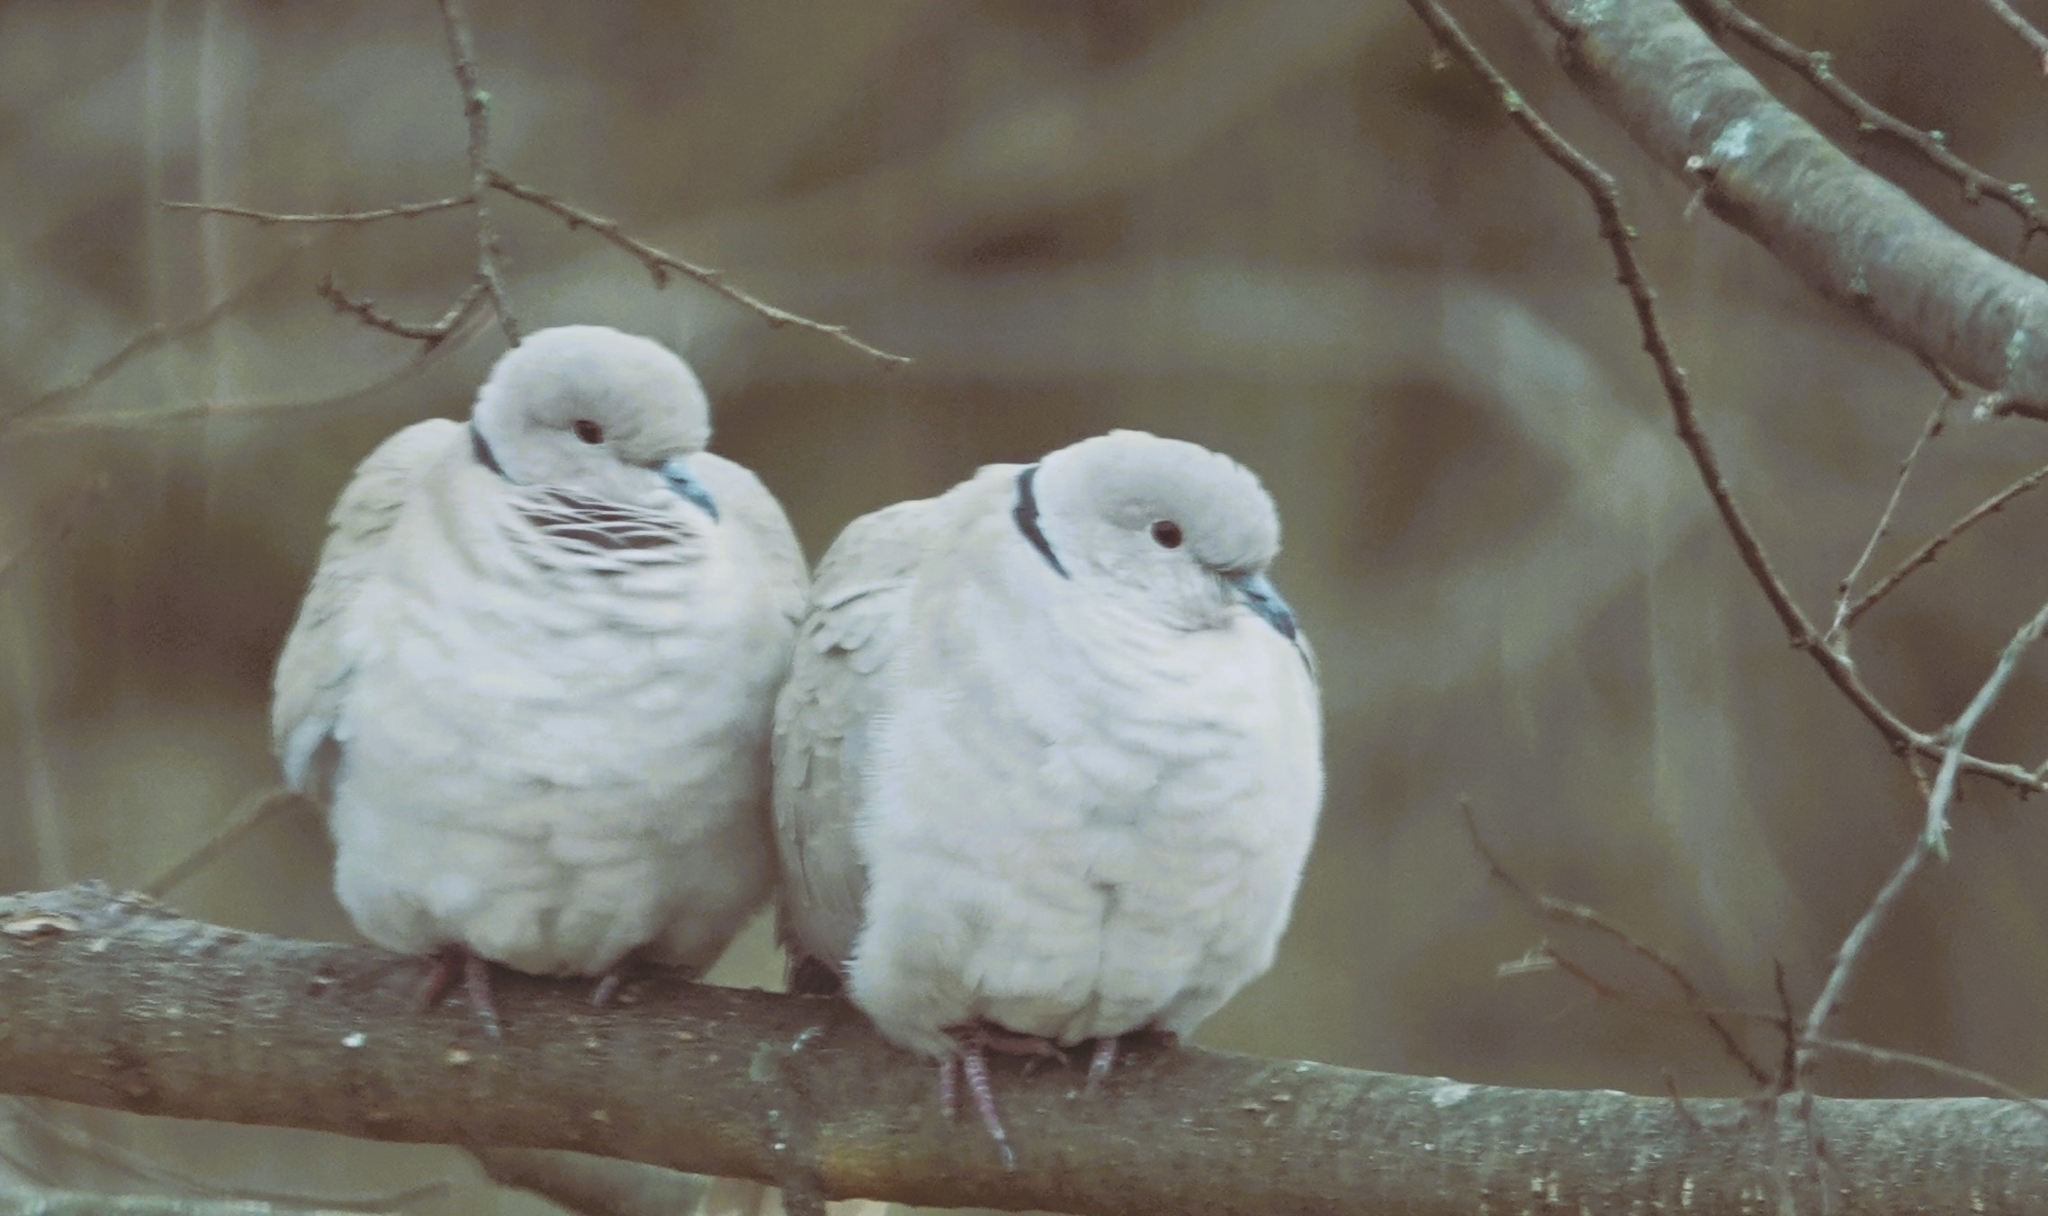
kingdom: Animalia
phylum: Chordata
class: Aves
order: Columbiformes
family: Columbidae
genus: Streptopelia
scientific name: Streptopelia decaocto
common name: Eurasian collared dove
